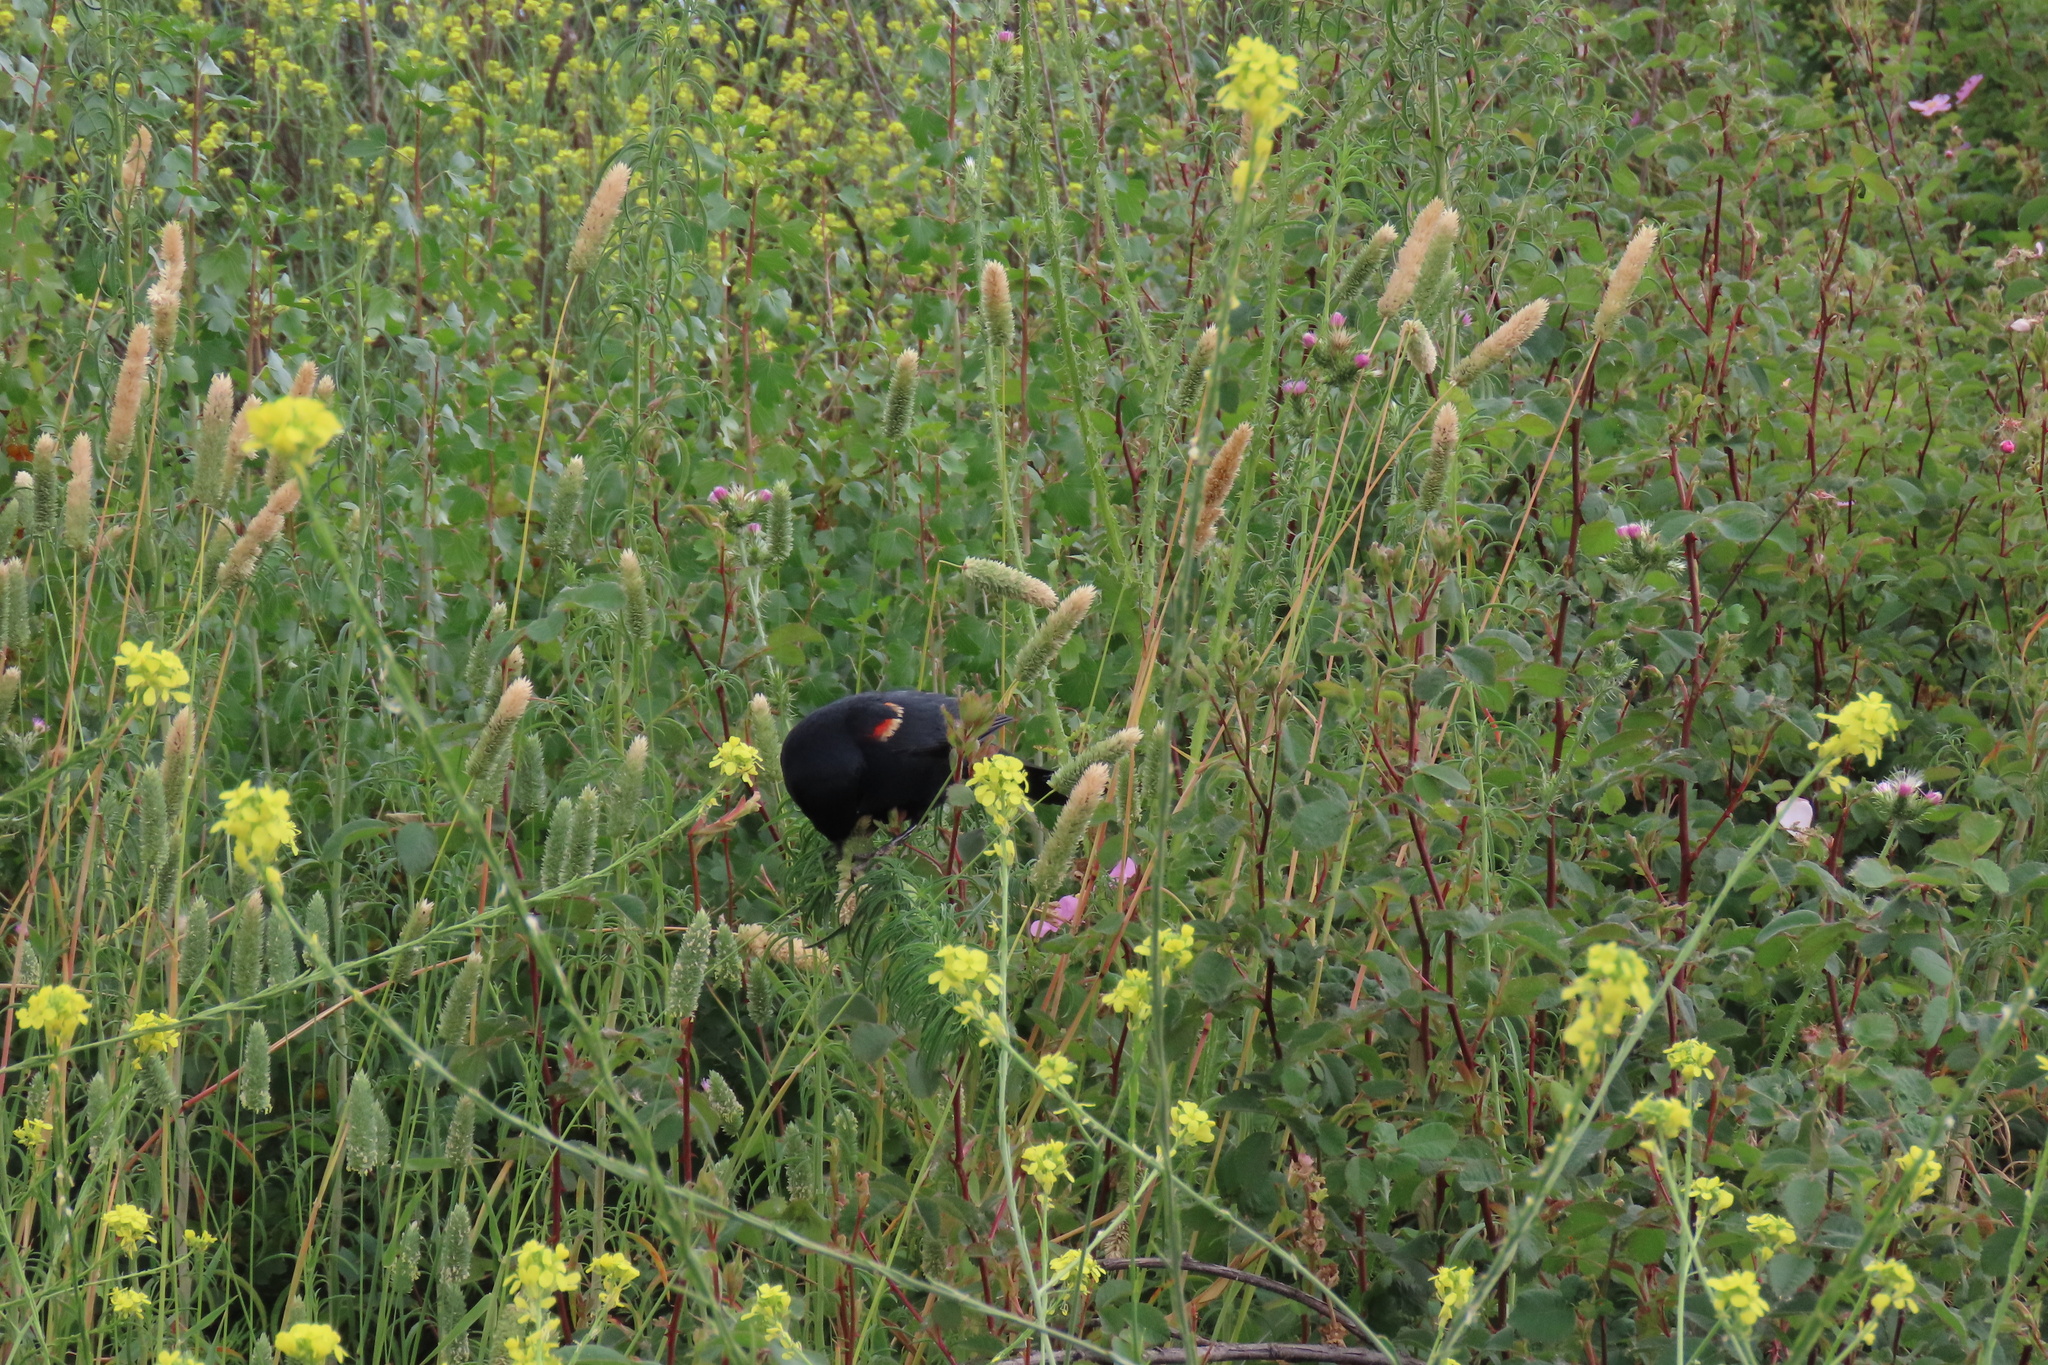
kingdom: Animalia
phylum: Chordata
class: Aves
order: Passeriformes
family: Icteridae
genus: Agelaius
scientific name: Agelaius phoeniceus
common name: Red-winged blackbird
